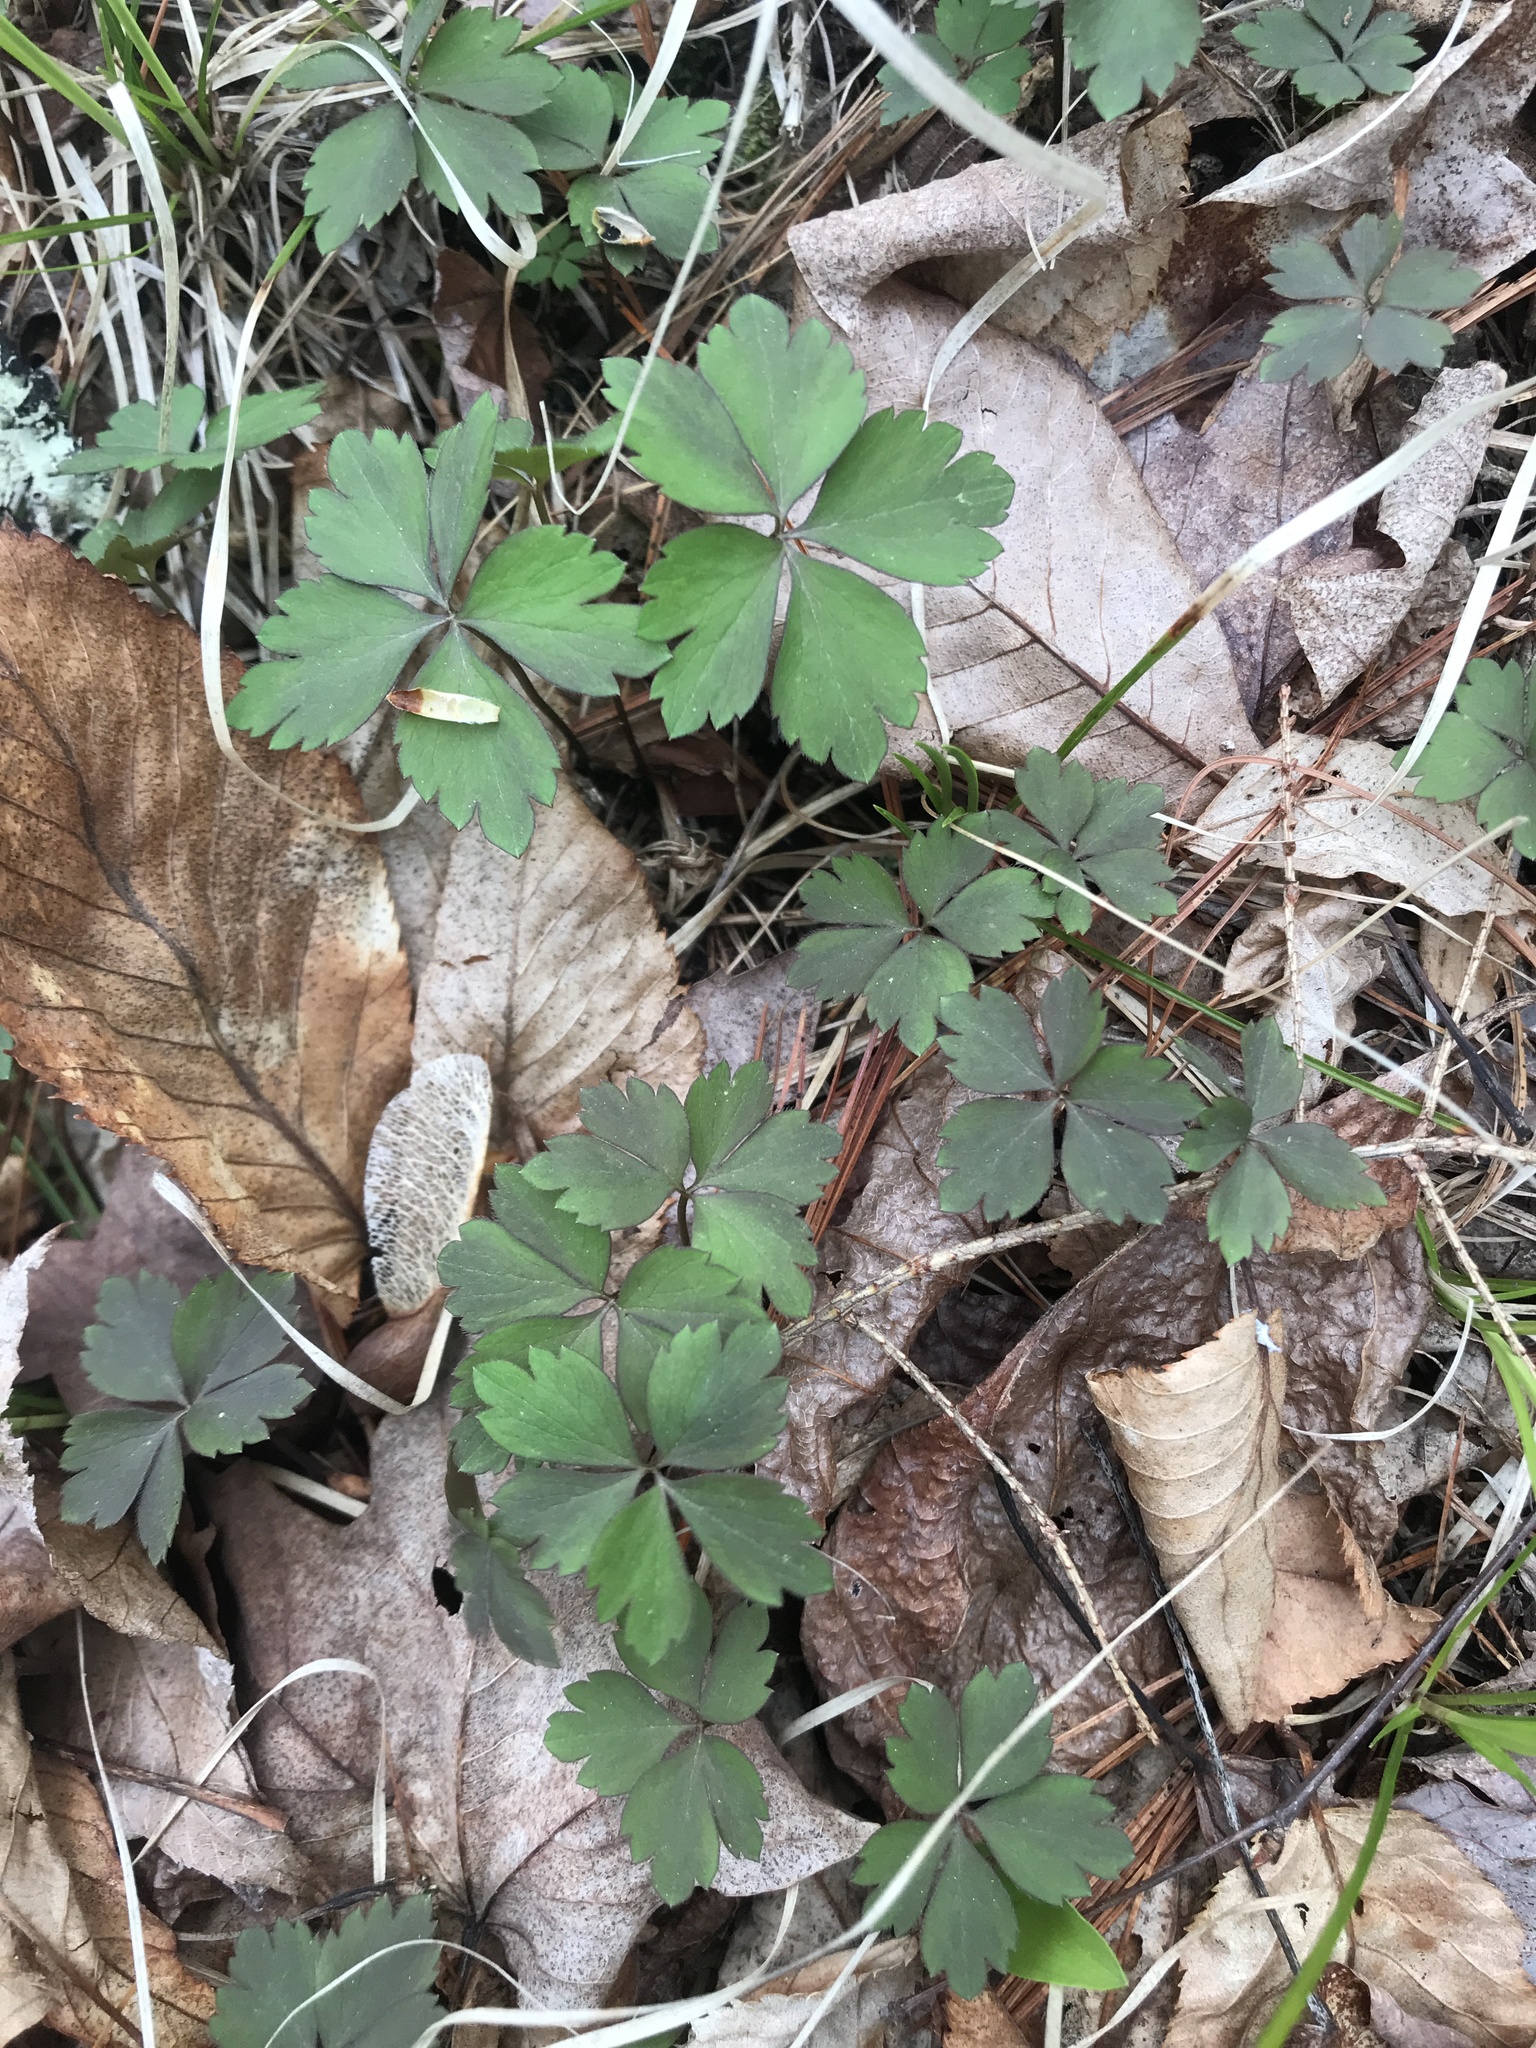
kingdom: Plantae
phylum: Tracheophyta
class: Magnoliopsida
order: Ranunculales
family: Ranunculaceae
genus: Anemone
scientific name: Anemone quinquefolia
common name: Wood anemone
